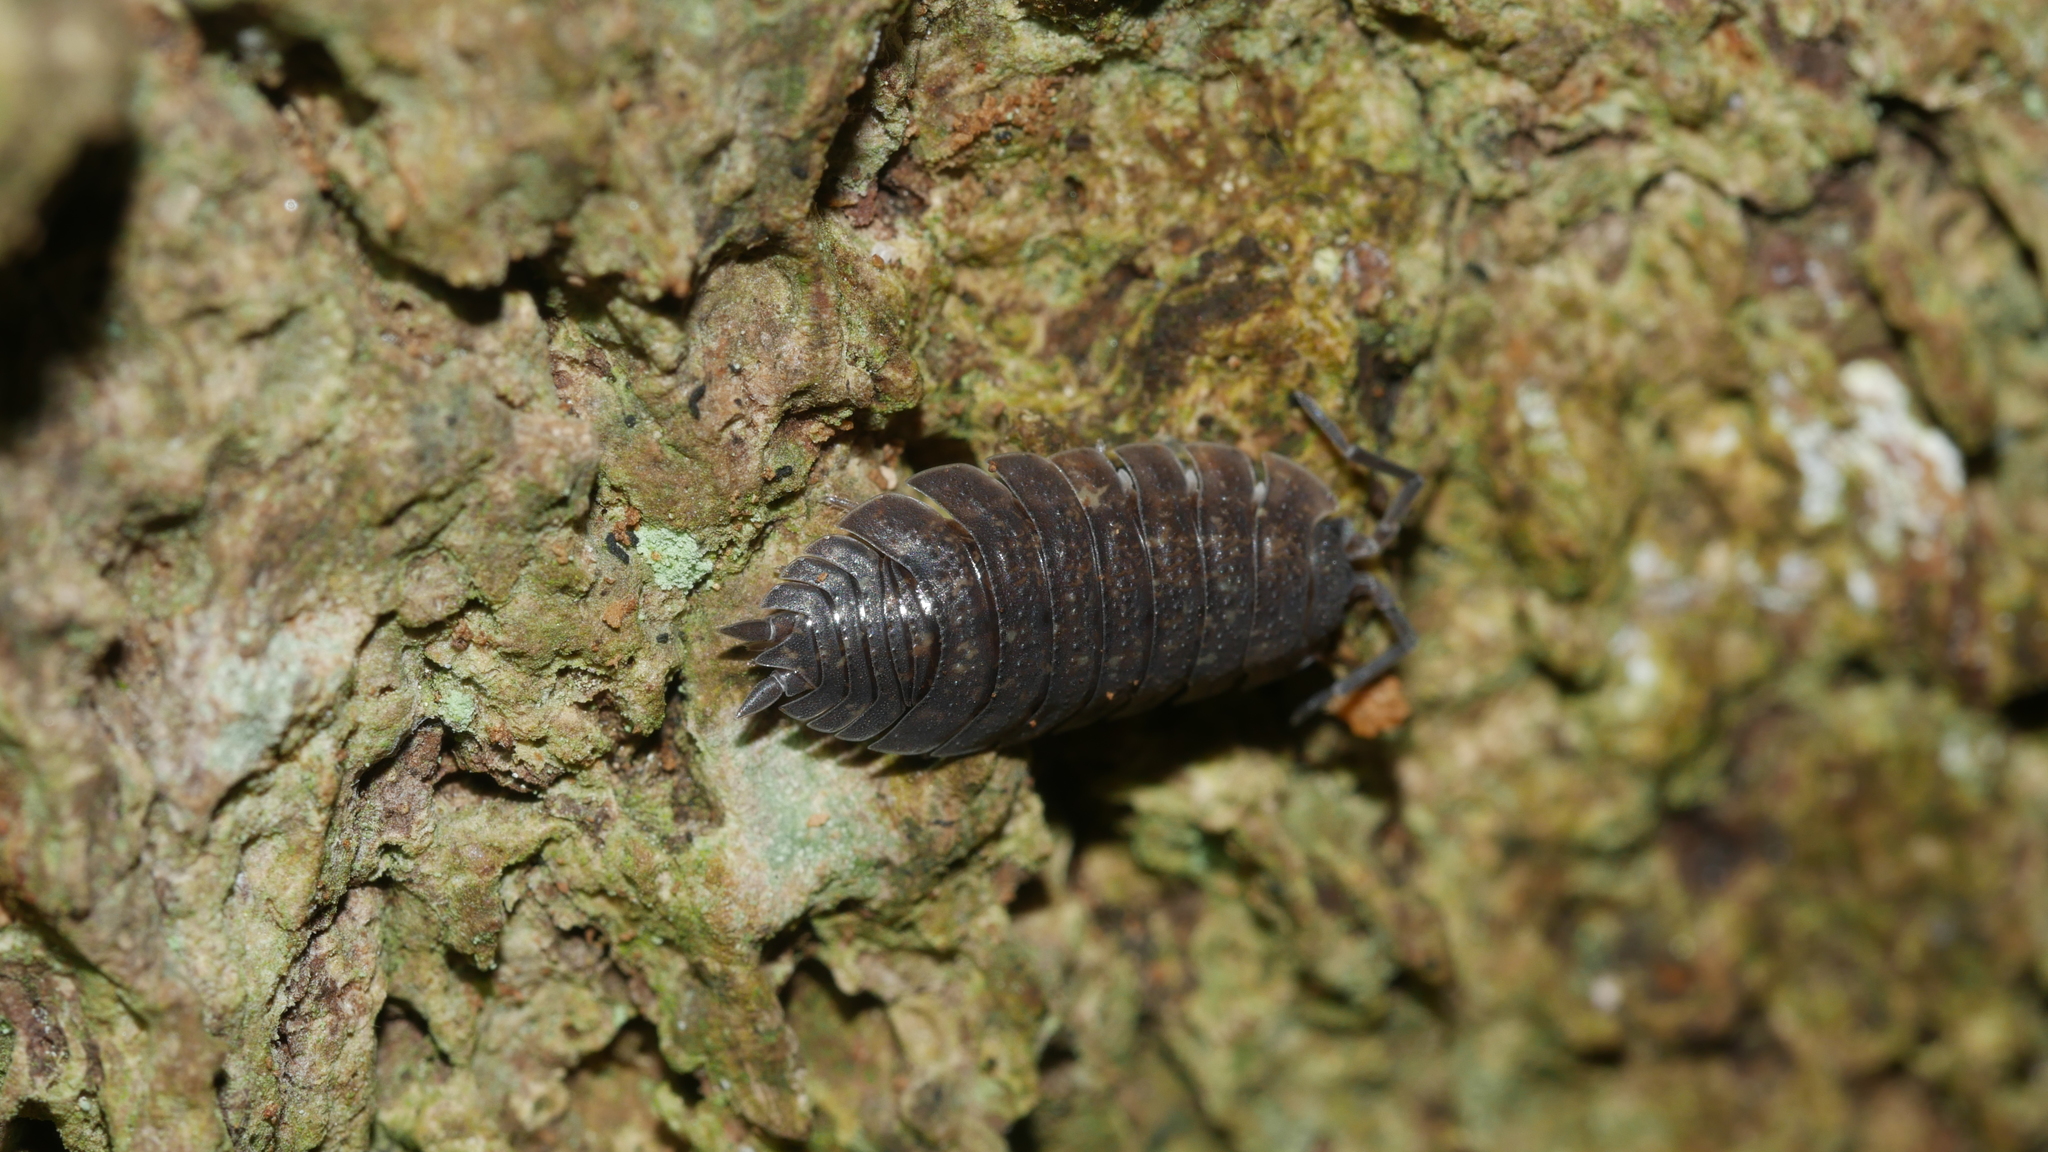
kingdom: Animalia
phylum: Arthropoda
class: Malacostraca
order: Isopoda
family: Porcellionidae
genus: Porcellio
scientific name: Porcellio scaber
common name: Common rough woodlouse
